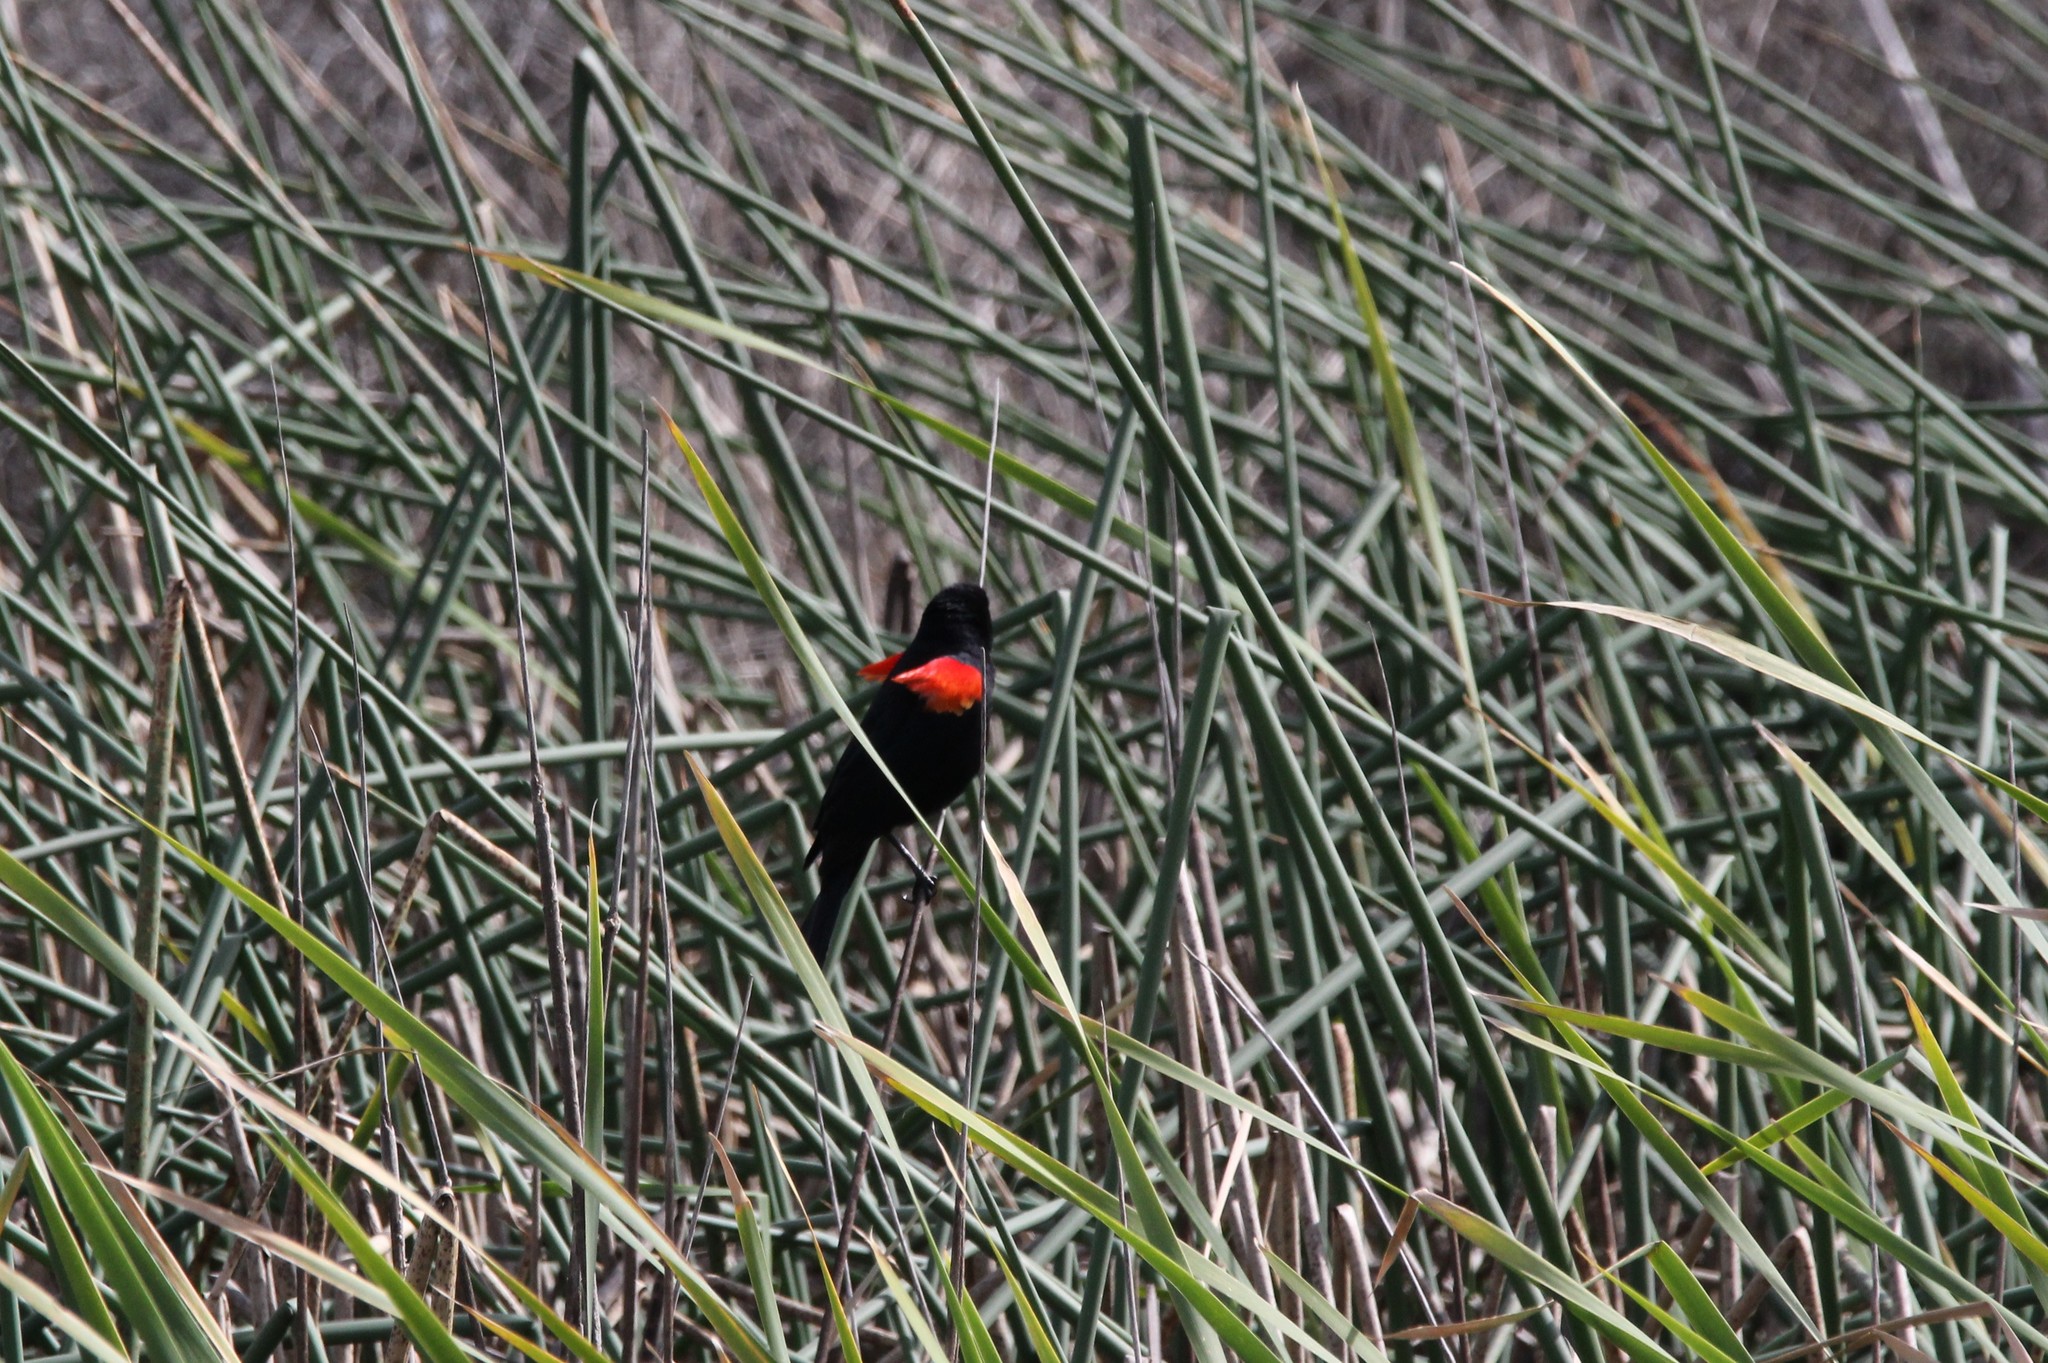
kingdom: Animalia
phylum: Chordata
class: Aves
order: Passeriformes
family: Icteridae
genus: Agelaius
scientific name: Agelaius phoeniceus
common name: Red-winged blackbird
